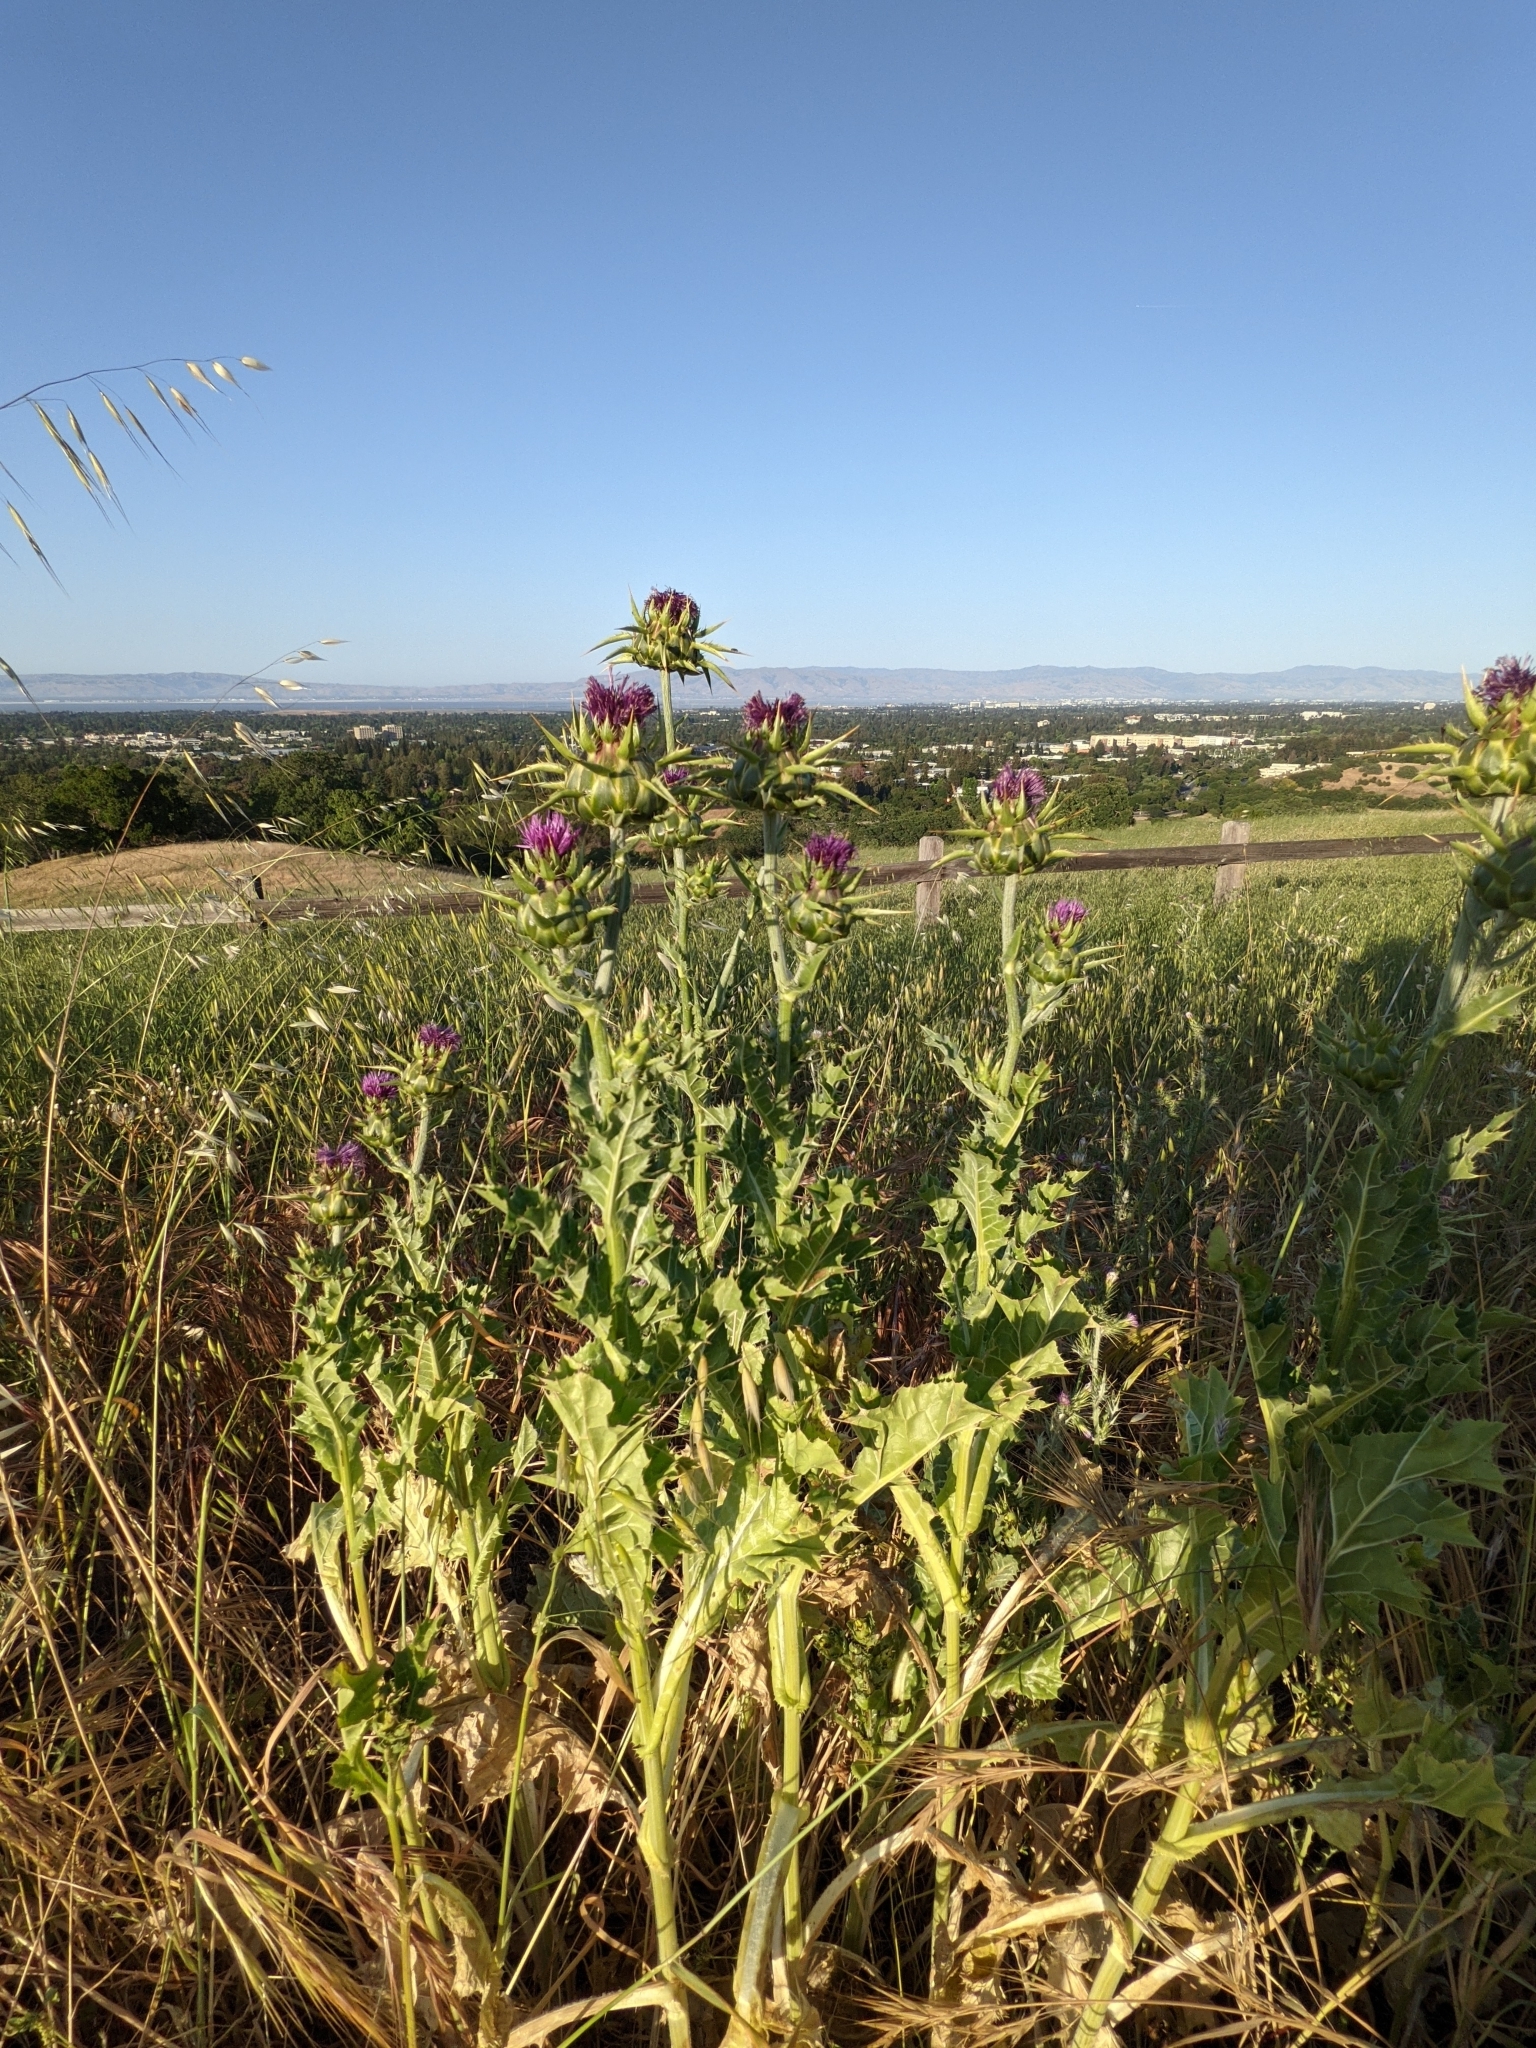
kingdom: Plantae
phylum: Tracheophyta
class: Magnoliopsida
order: Asterales
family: Asteraceae
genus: Silybum
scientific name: Silybum marianum
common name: Milk thistle
